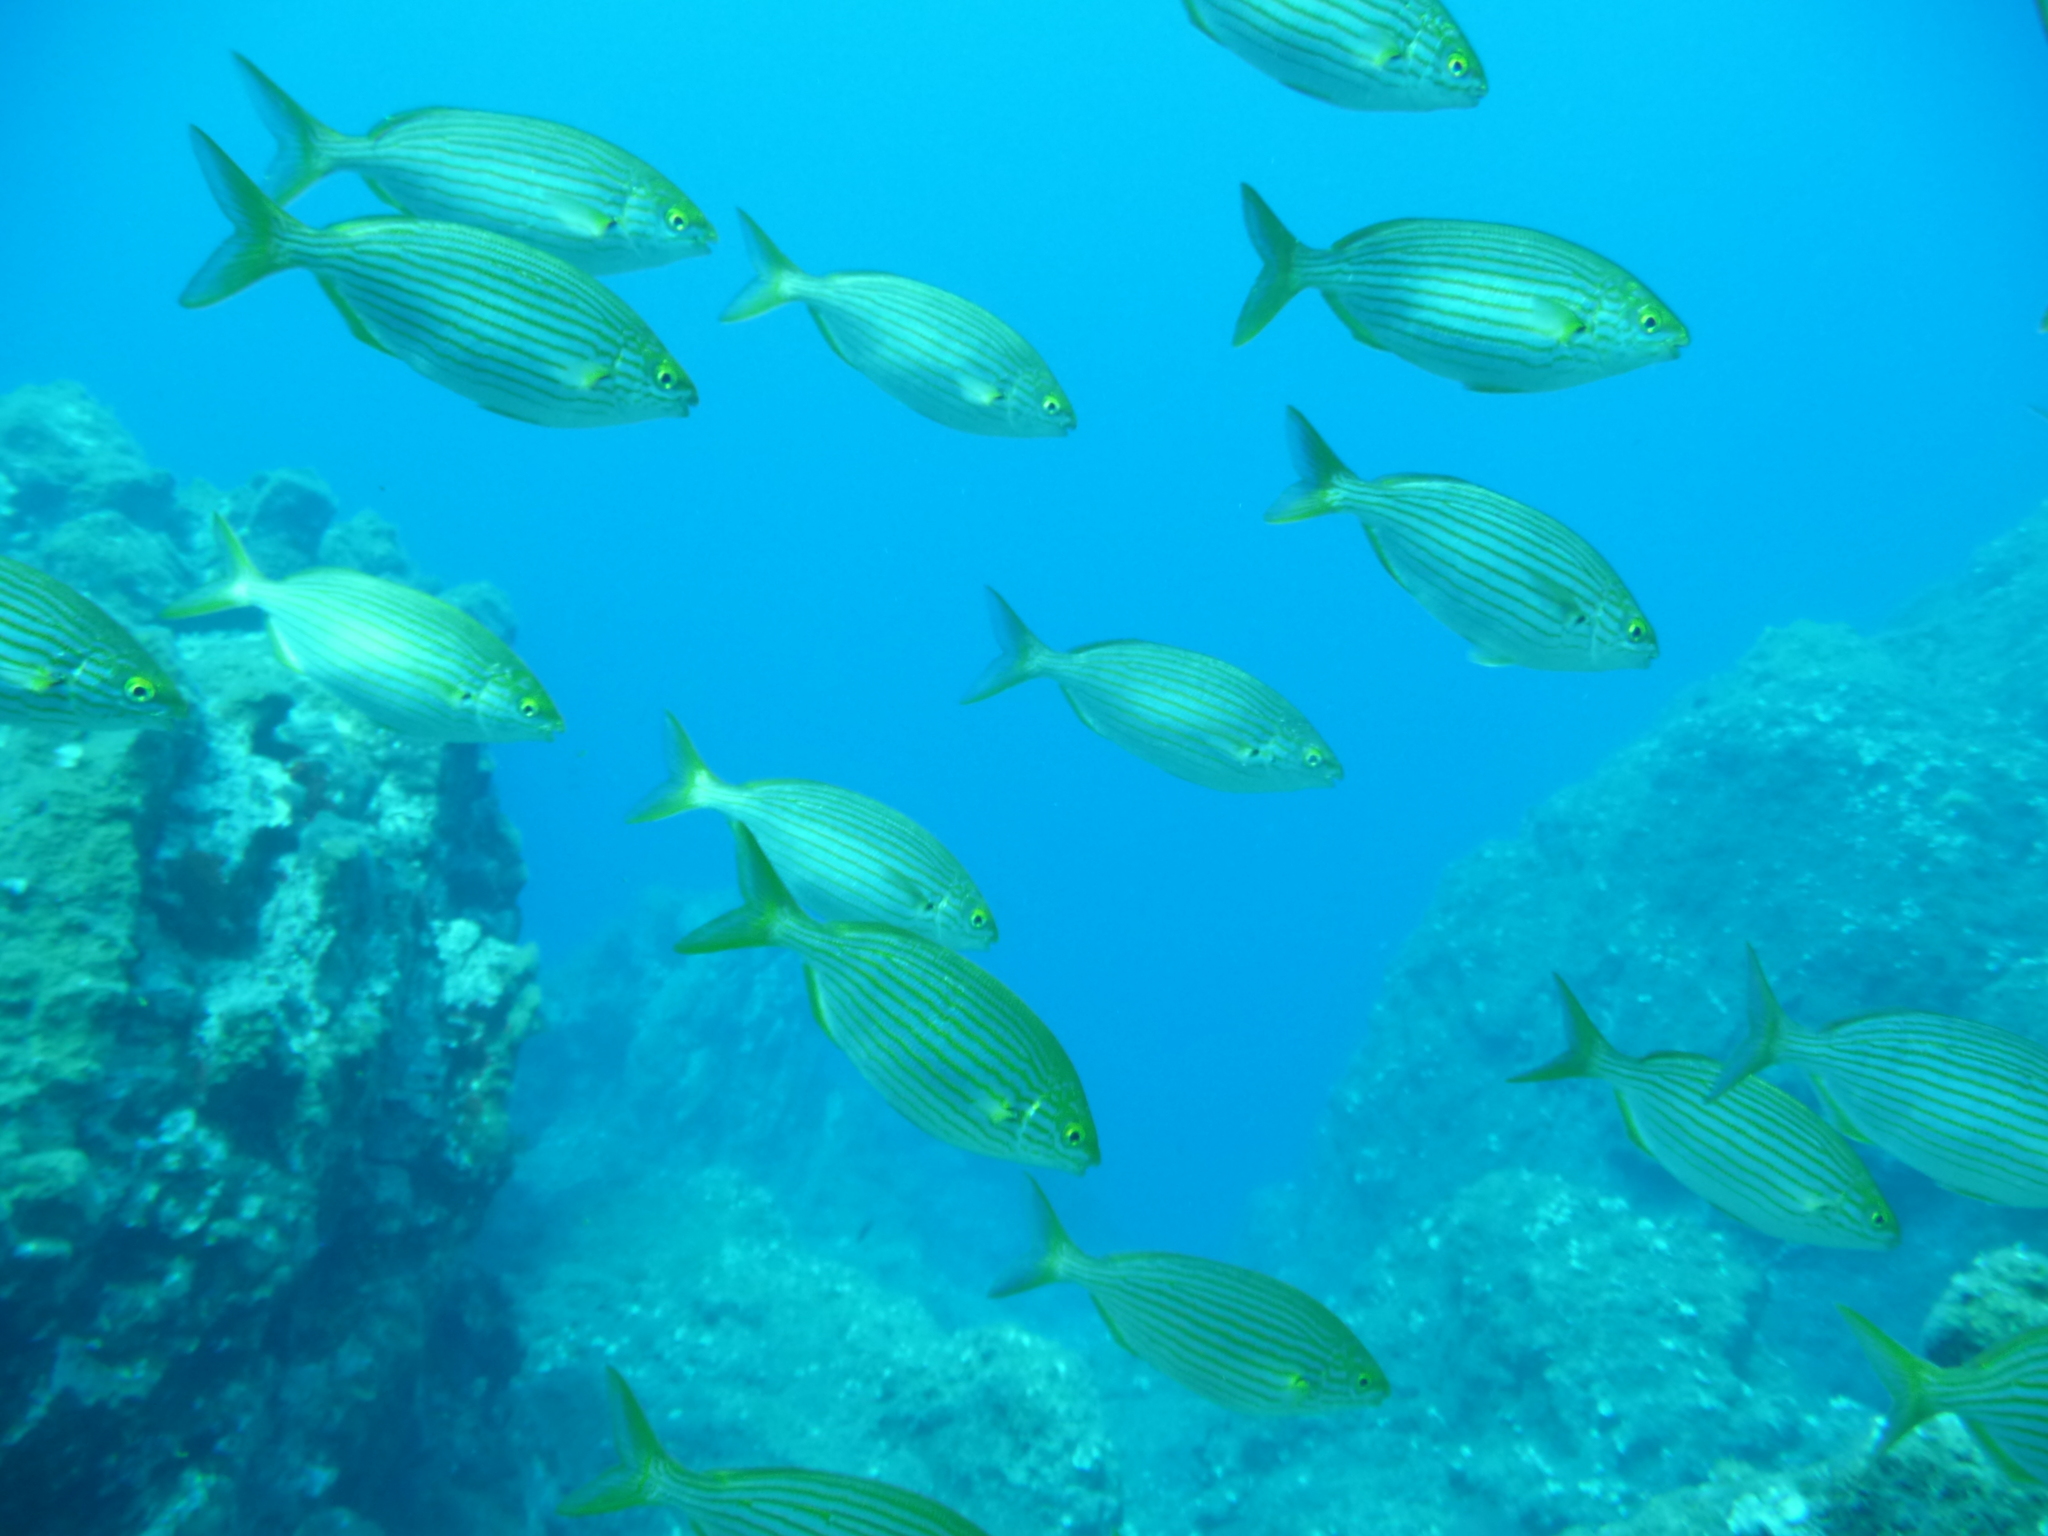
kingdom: Animalia
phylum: Chordata
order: Perciformes
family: Sparidae
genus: Sarpa
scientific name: Sarpa salpa
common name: Salema
